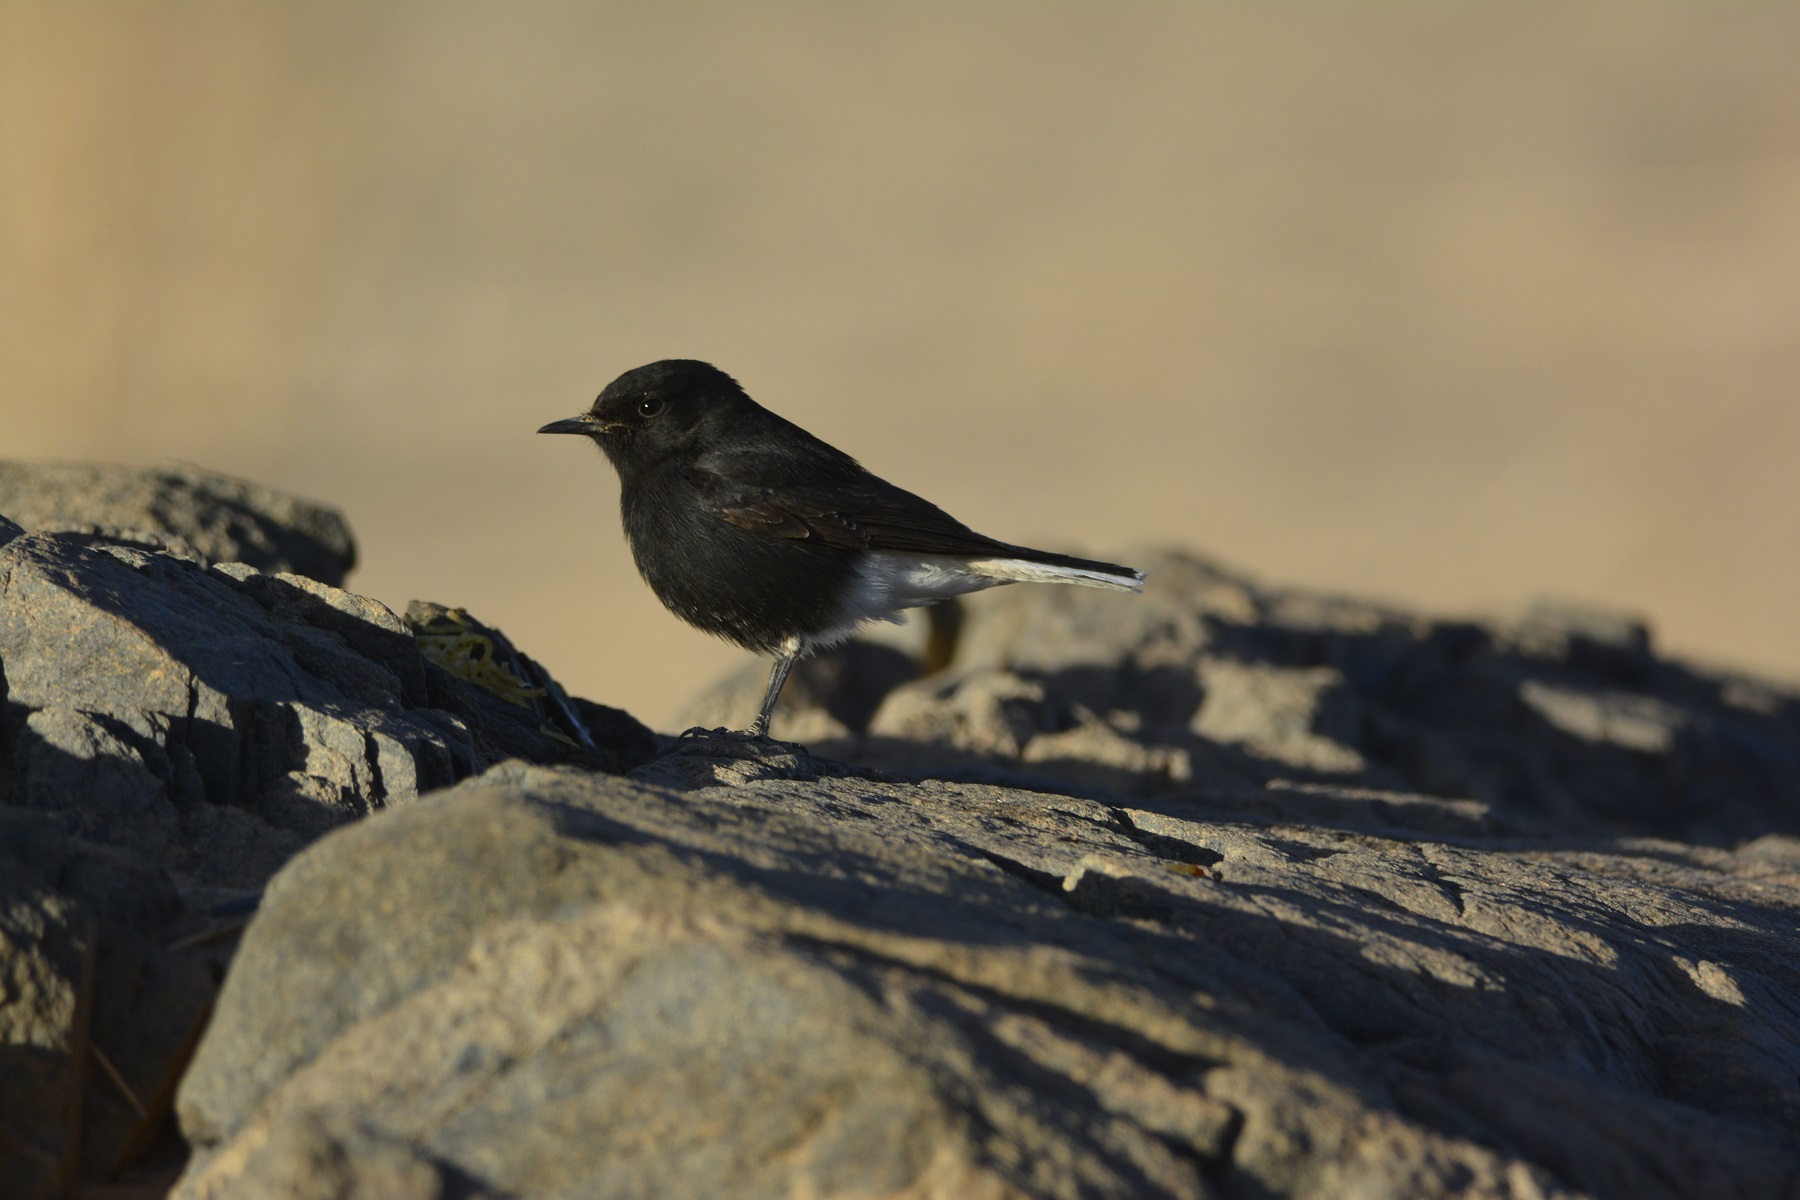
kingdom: Animalia
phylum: Chordata
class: Aves
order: Passeriformes
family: Muscicapidae
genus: Oenanthe
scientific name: Oenanthe leucopyga
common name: White-crowned wheatear
